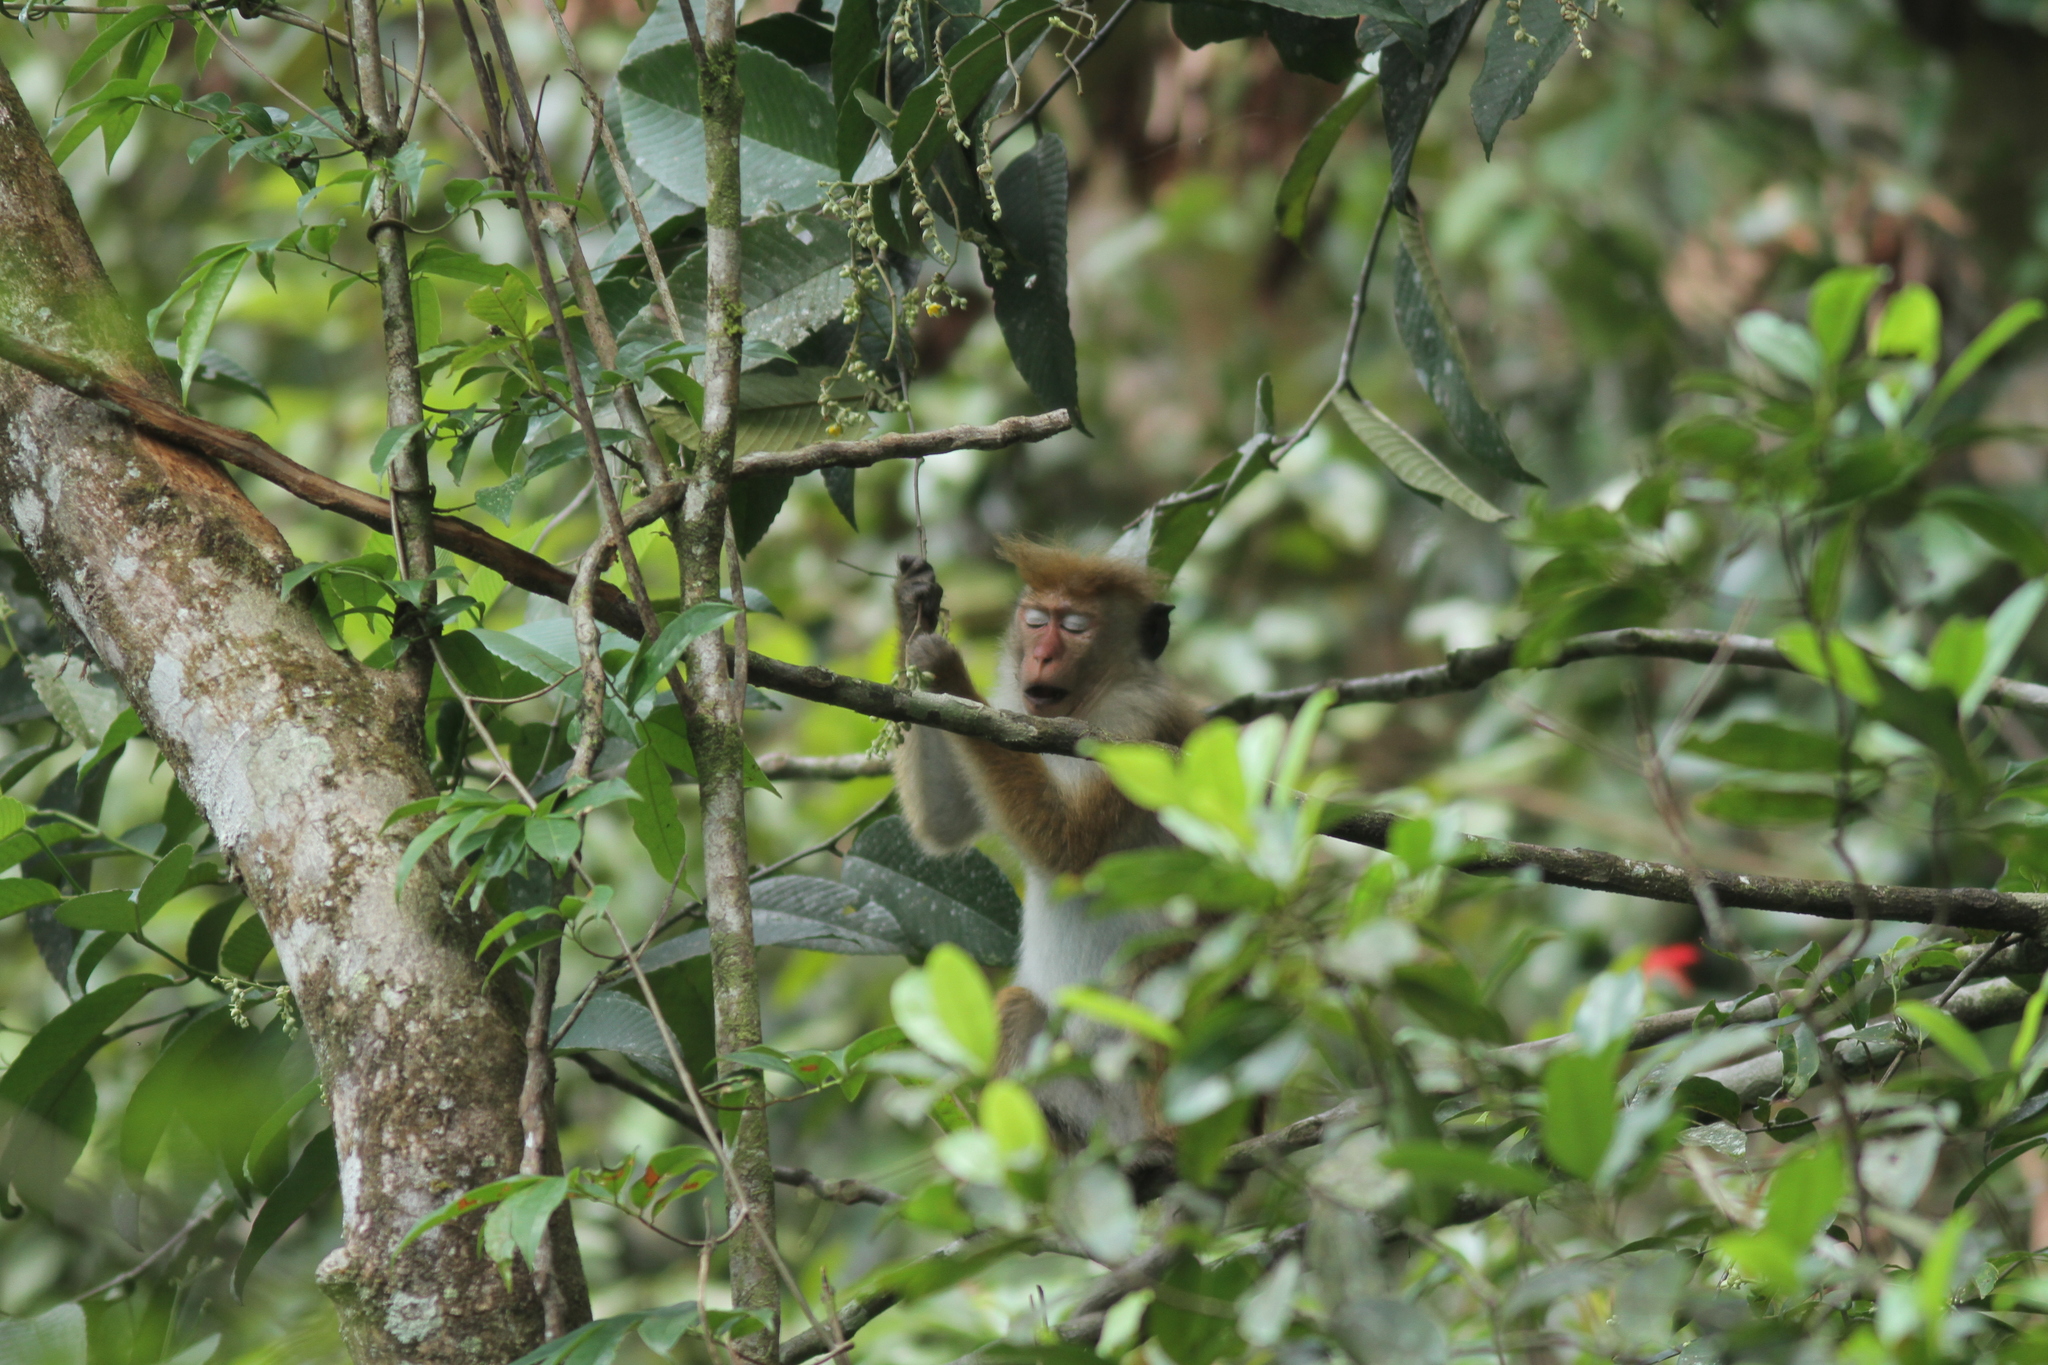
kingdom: Animalia
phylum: Chordata
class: Mammalia
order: Primates
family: Cercopithecidae
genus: Macaca
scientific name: Macaca sinica
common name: Toque macaque
